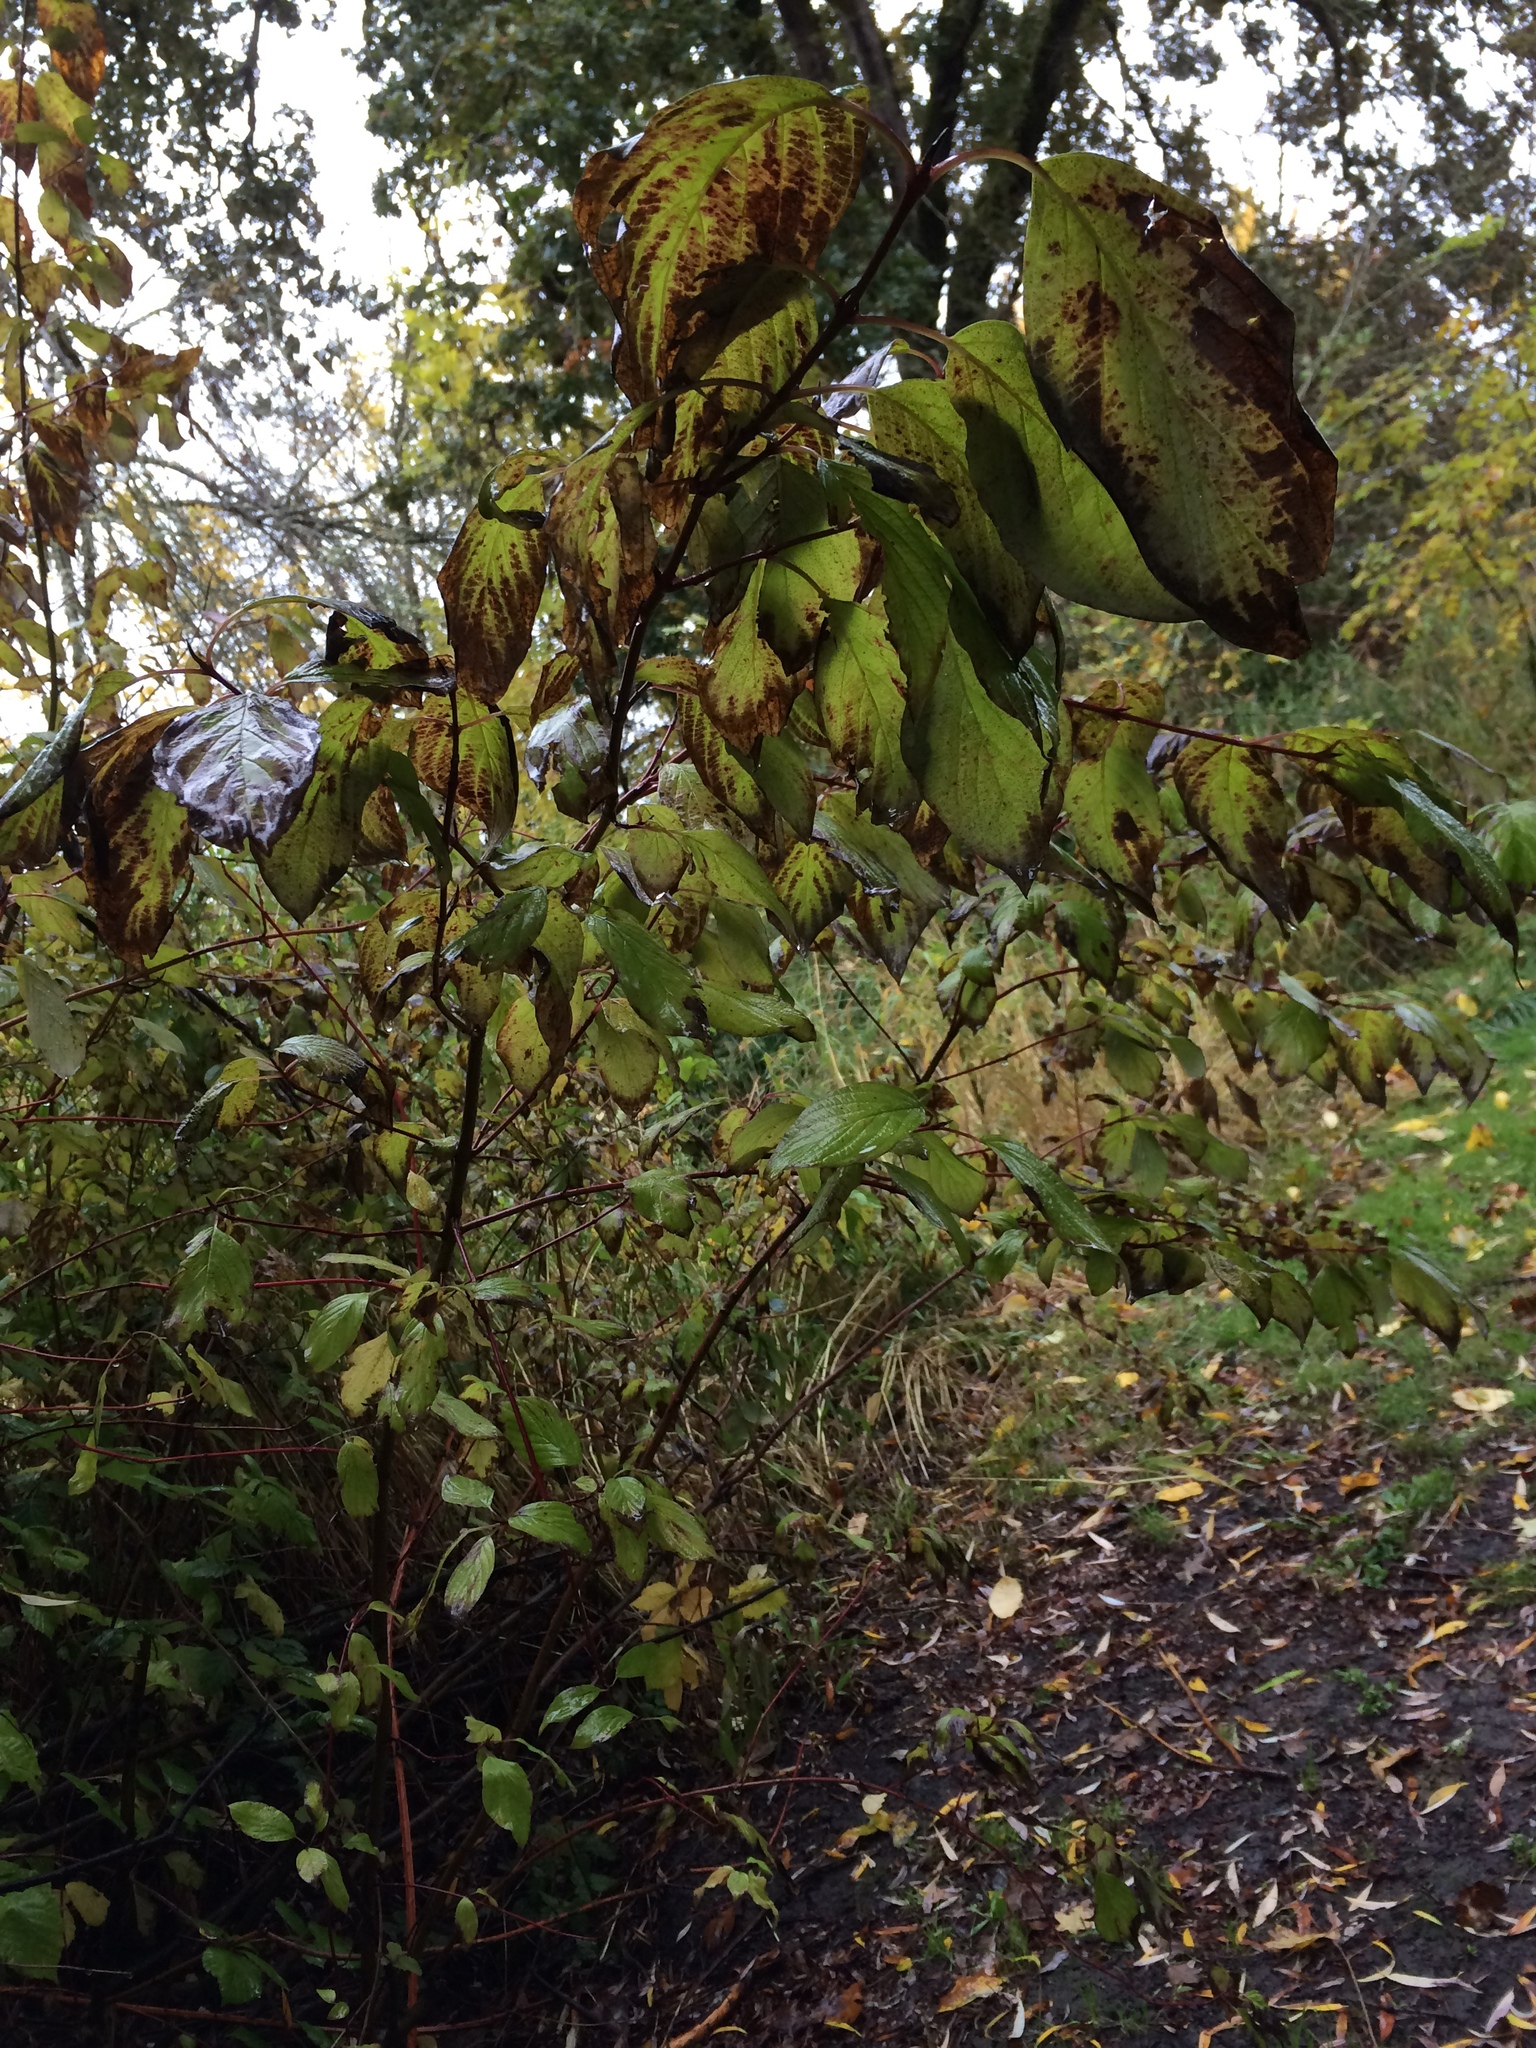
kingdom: Plantae
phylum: Tracheophyta
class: Magnoliopsida
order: Cornales
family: Cornaceae
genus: Cornus
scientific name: Cornus sericea
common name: Red-osier dogwood
